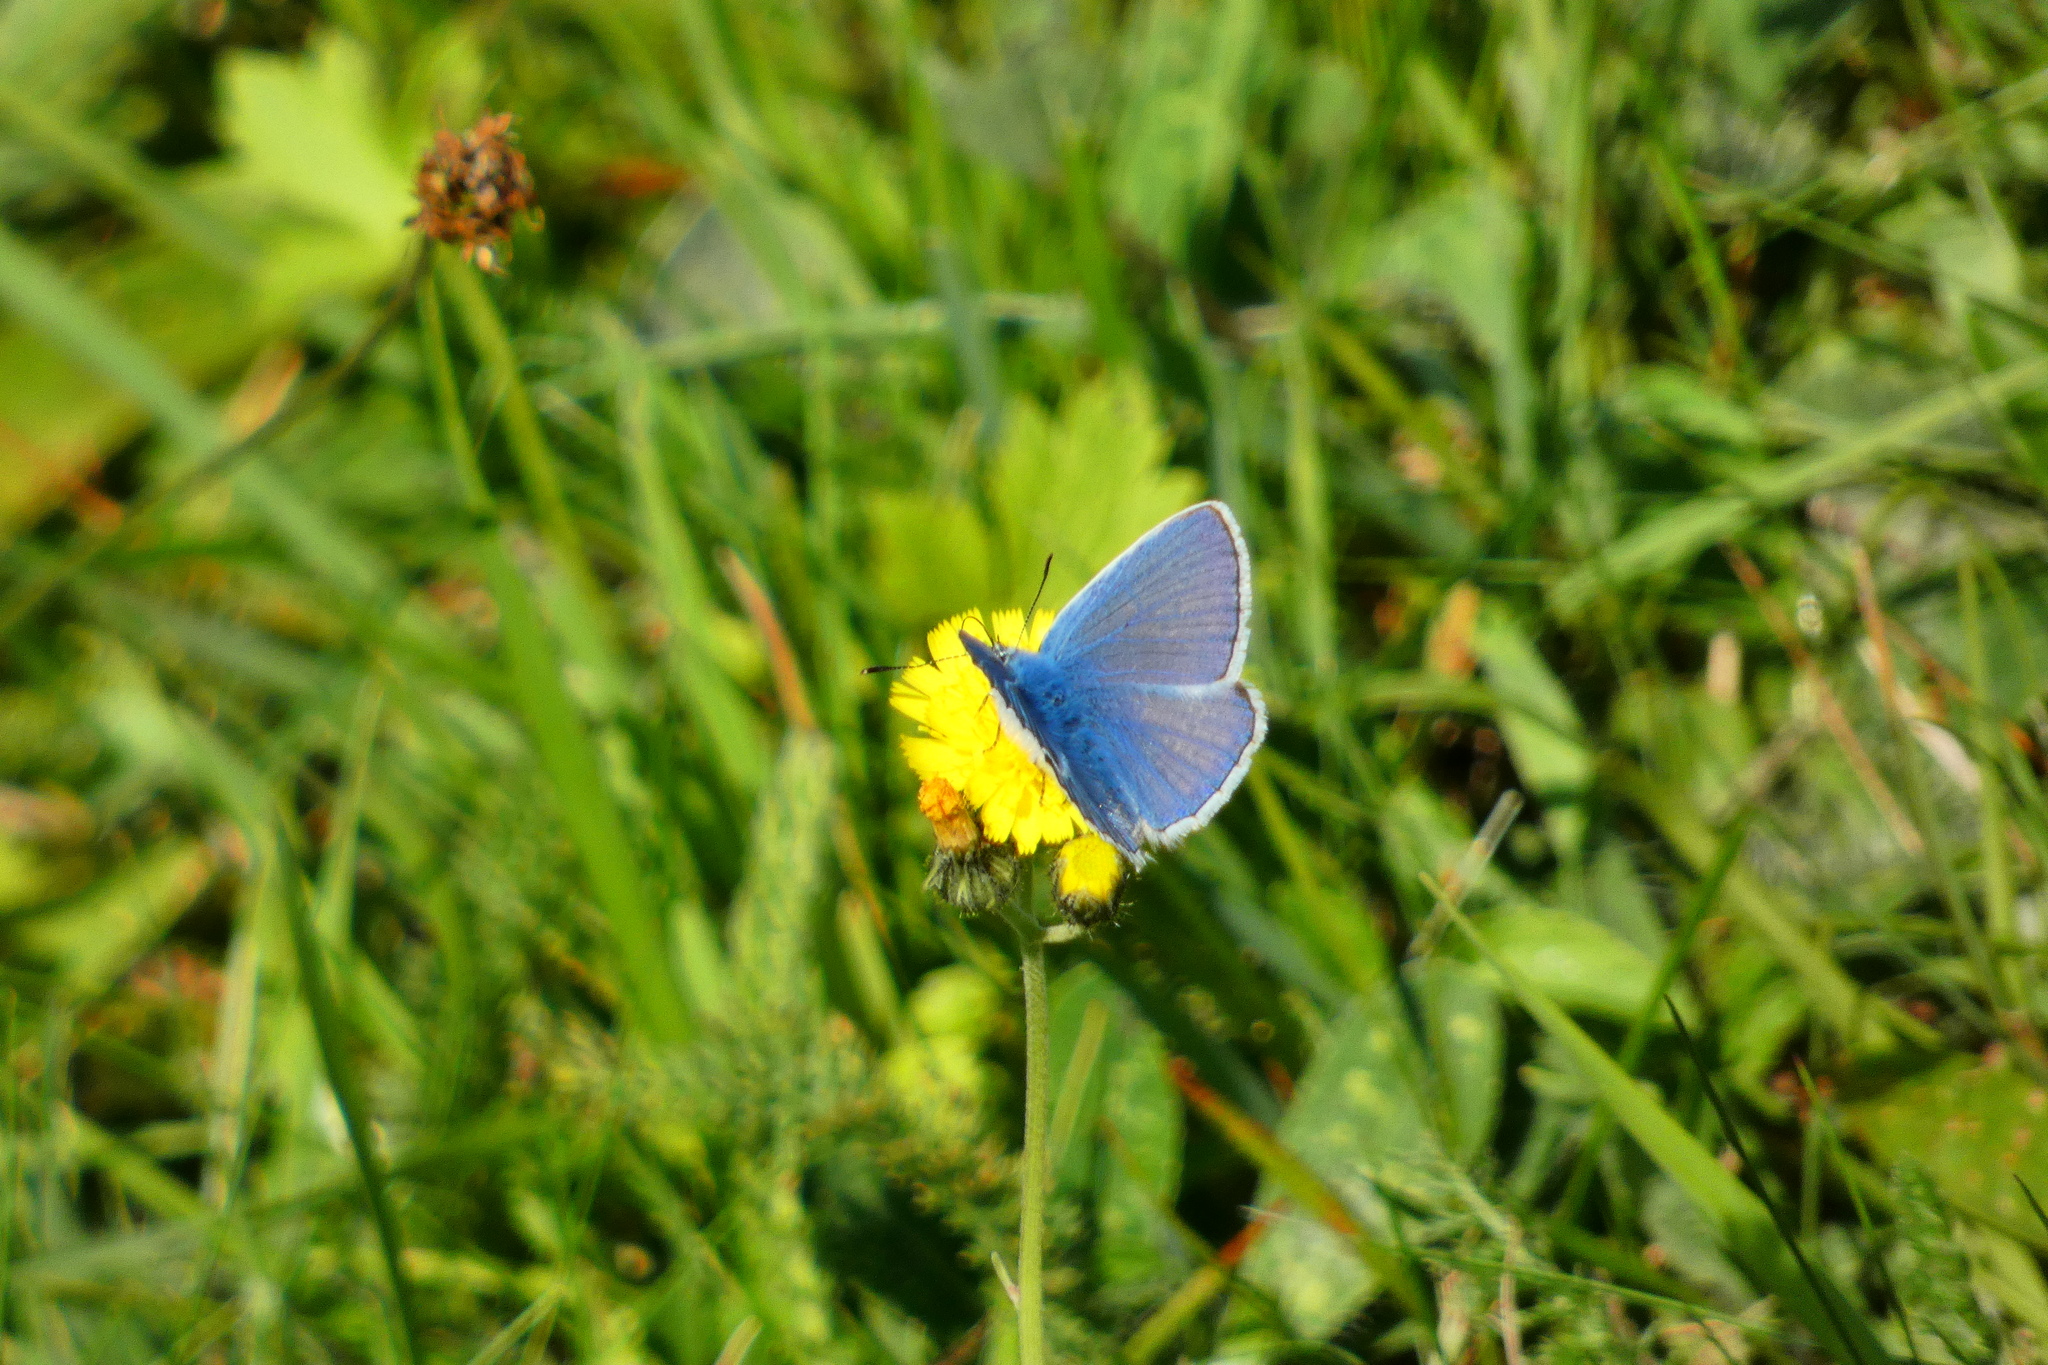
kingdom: Animalia
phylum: Arthropoda
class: Insecta
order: Lepidoptera
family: Lycaenidae
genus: Polyommatus
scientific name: Polyommatus icarus
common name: Common blue
